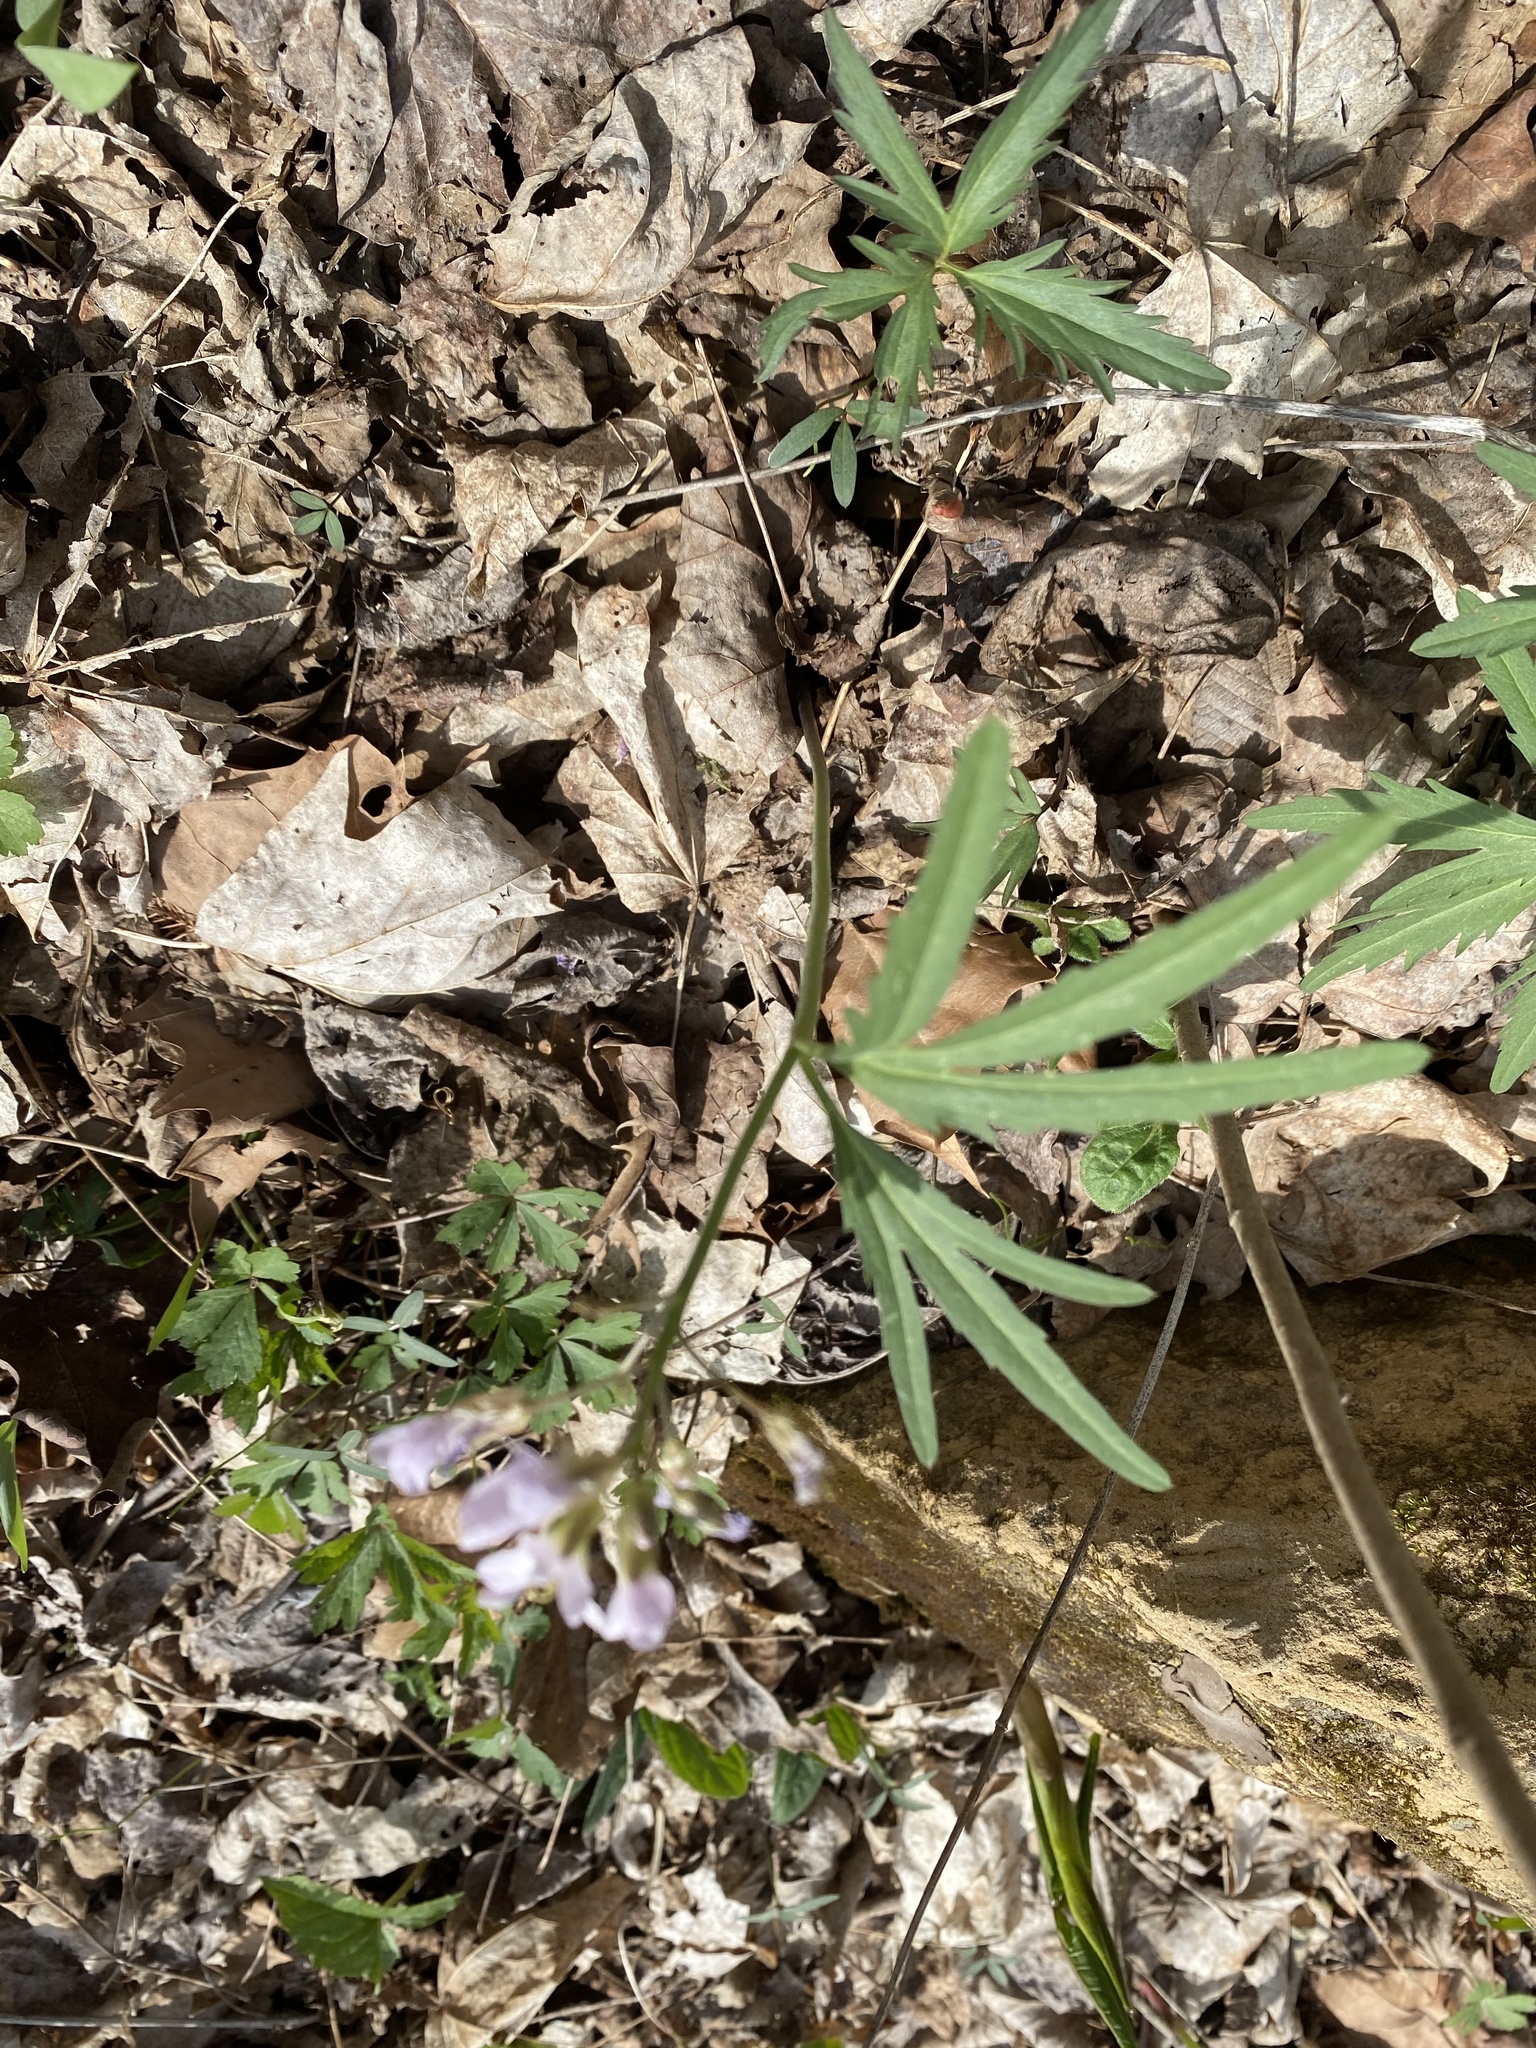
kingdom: Plantae
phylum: Tracheophyta
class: Magnoliopsida
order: Brassicales
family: Brassicaceae
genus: Cardamine
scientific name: Cardamine concatenata
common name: Cut-leaf toothcup
